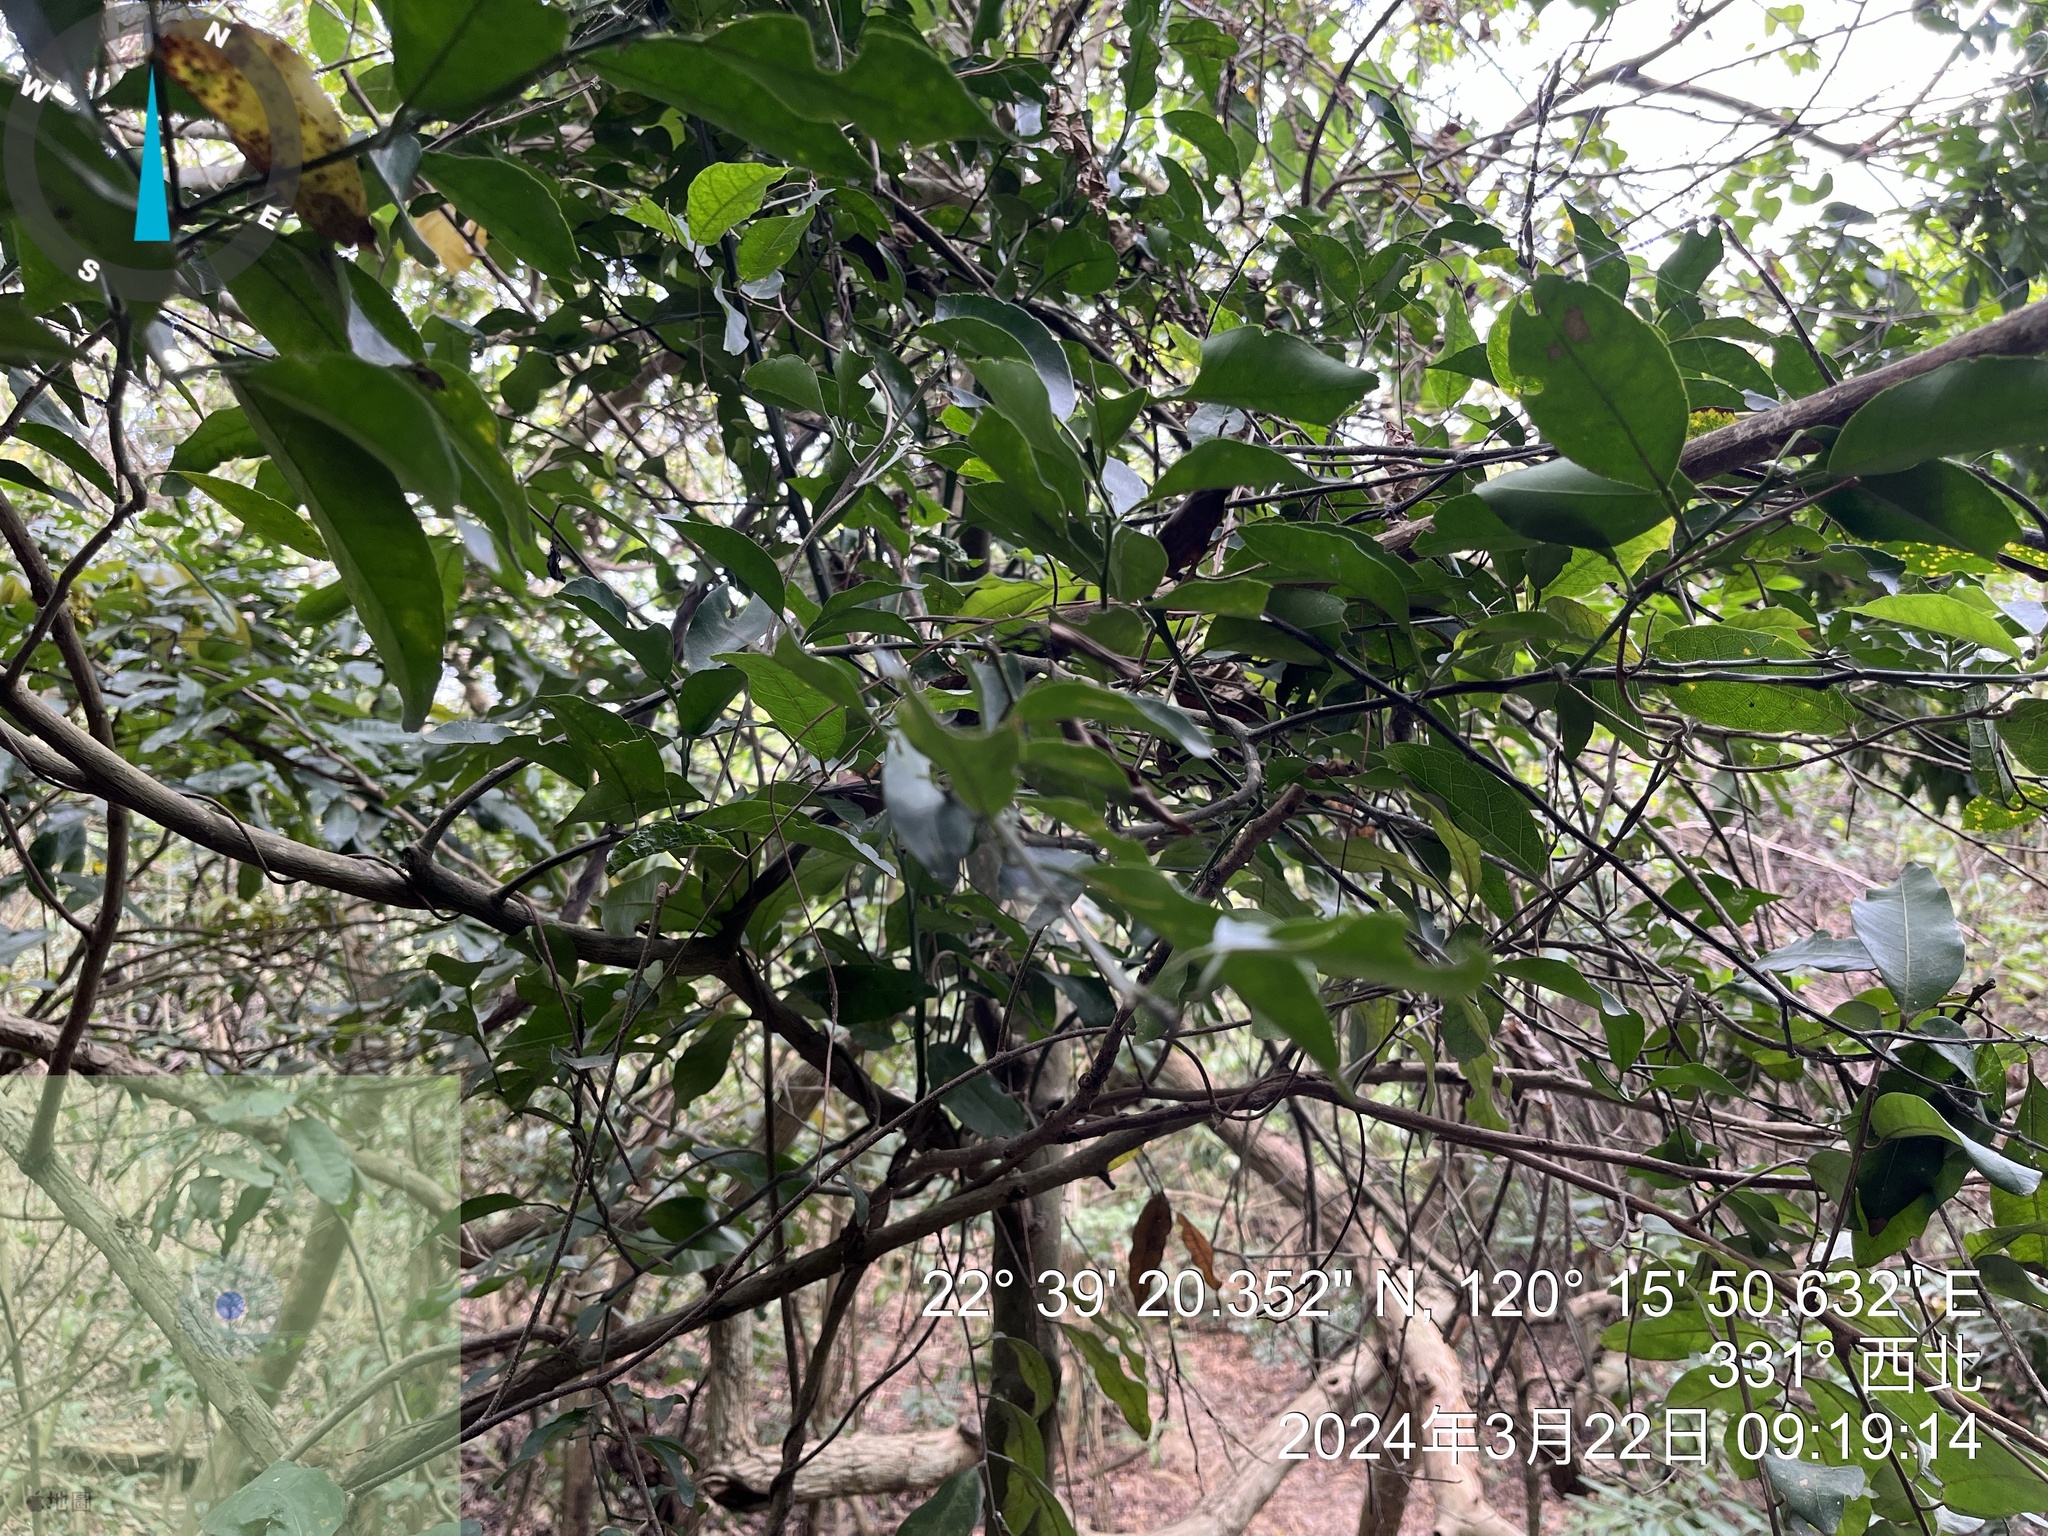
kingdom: Plantae
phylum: Tracheophyta
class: Magnoliopsida
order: Malpighiales
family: Phyllanthaceae
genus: Glochidion
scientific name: Glochidion rubrum
